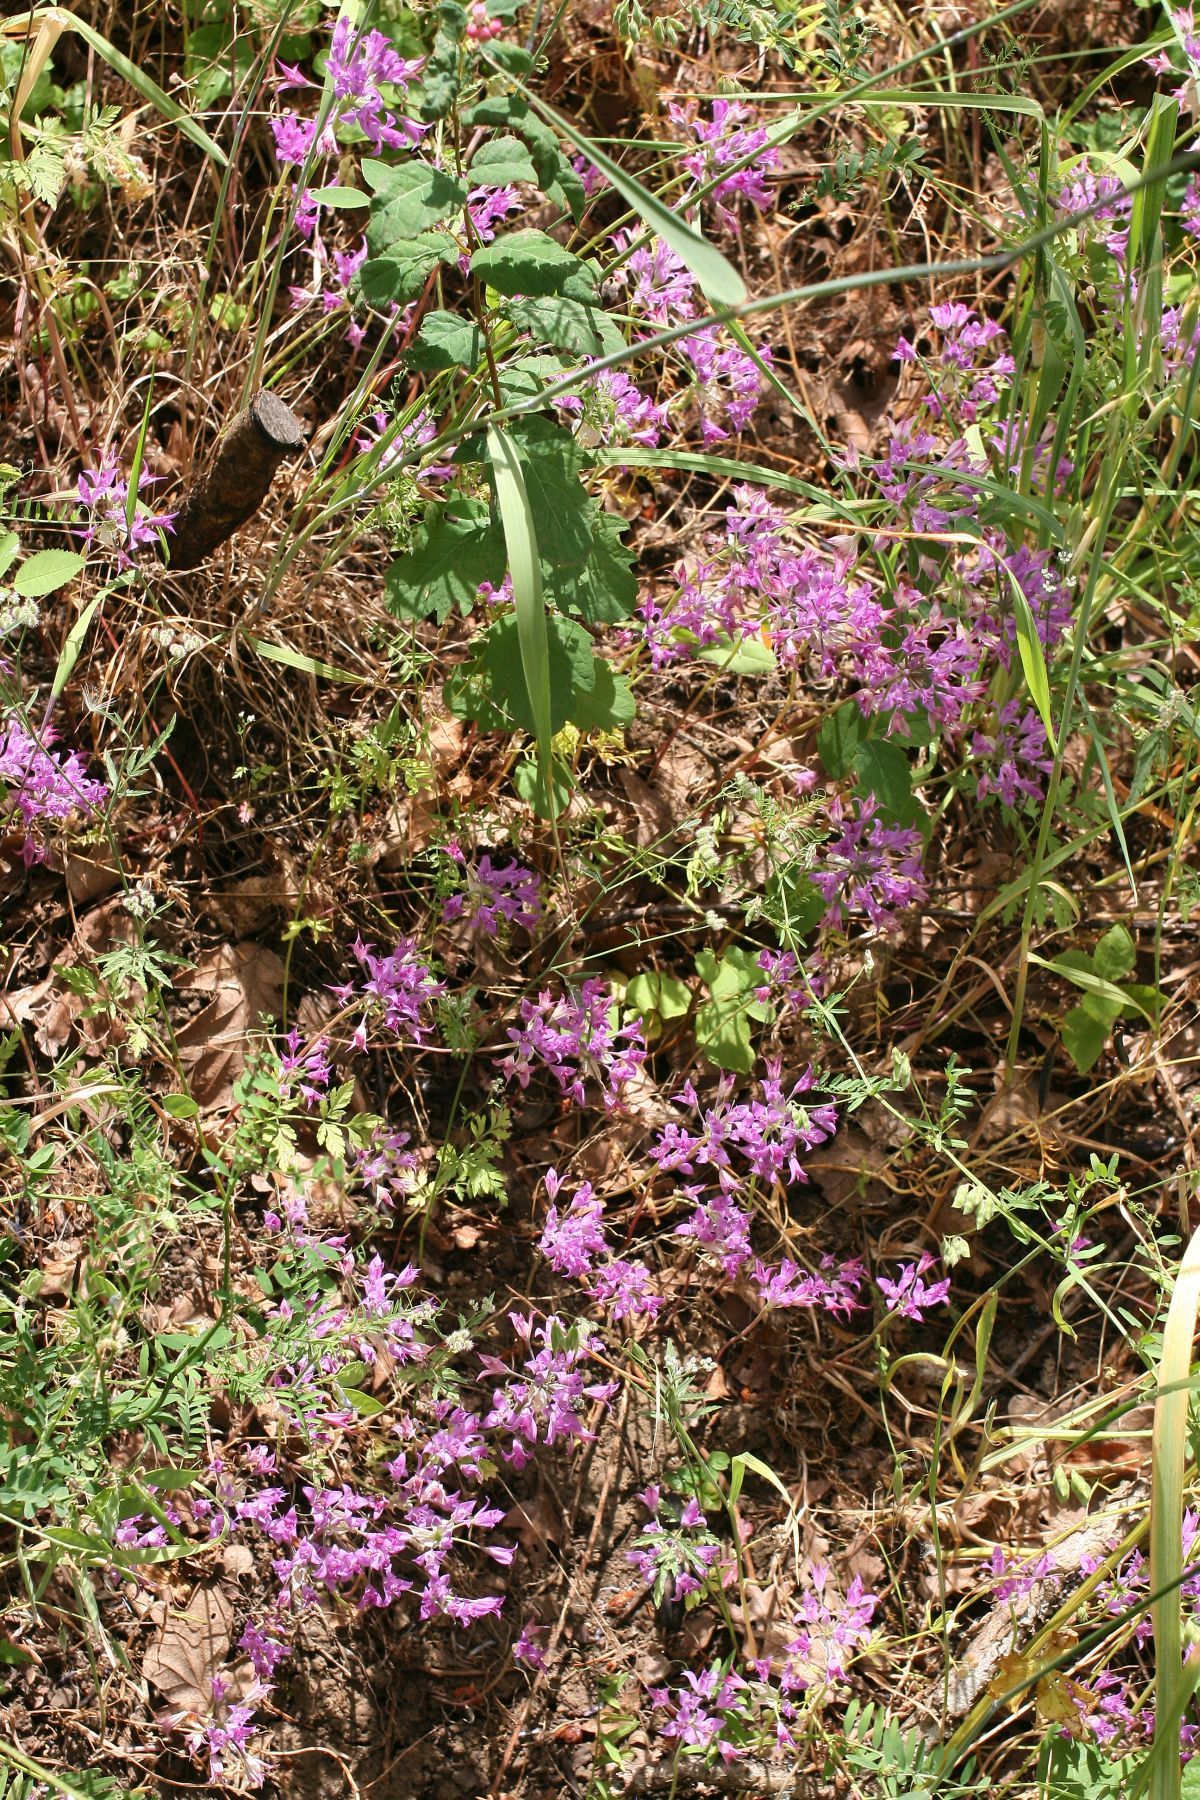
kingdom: Plantae
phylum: Tracheophyta
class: Liliopsida
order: Asparagales
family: Amaryllidaceae
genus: Allium
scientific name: Allium acuminatum
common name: Hooker's onion
